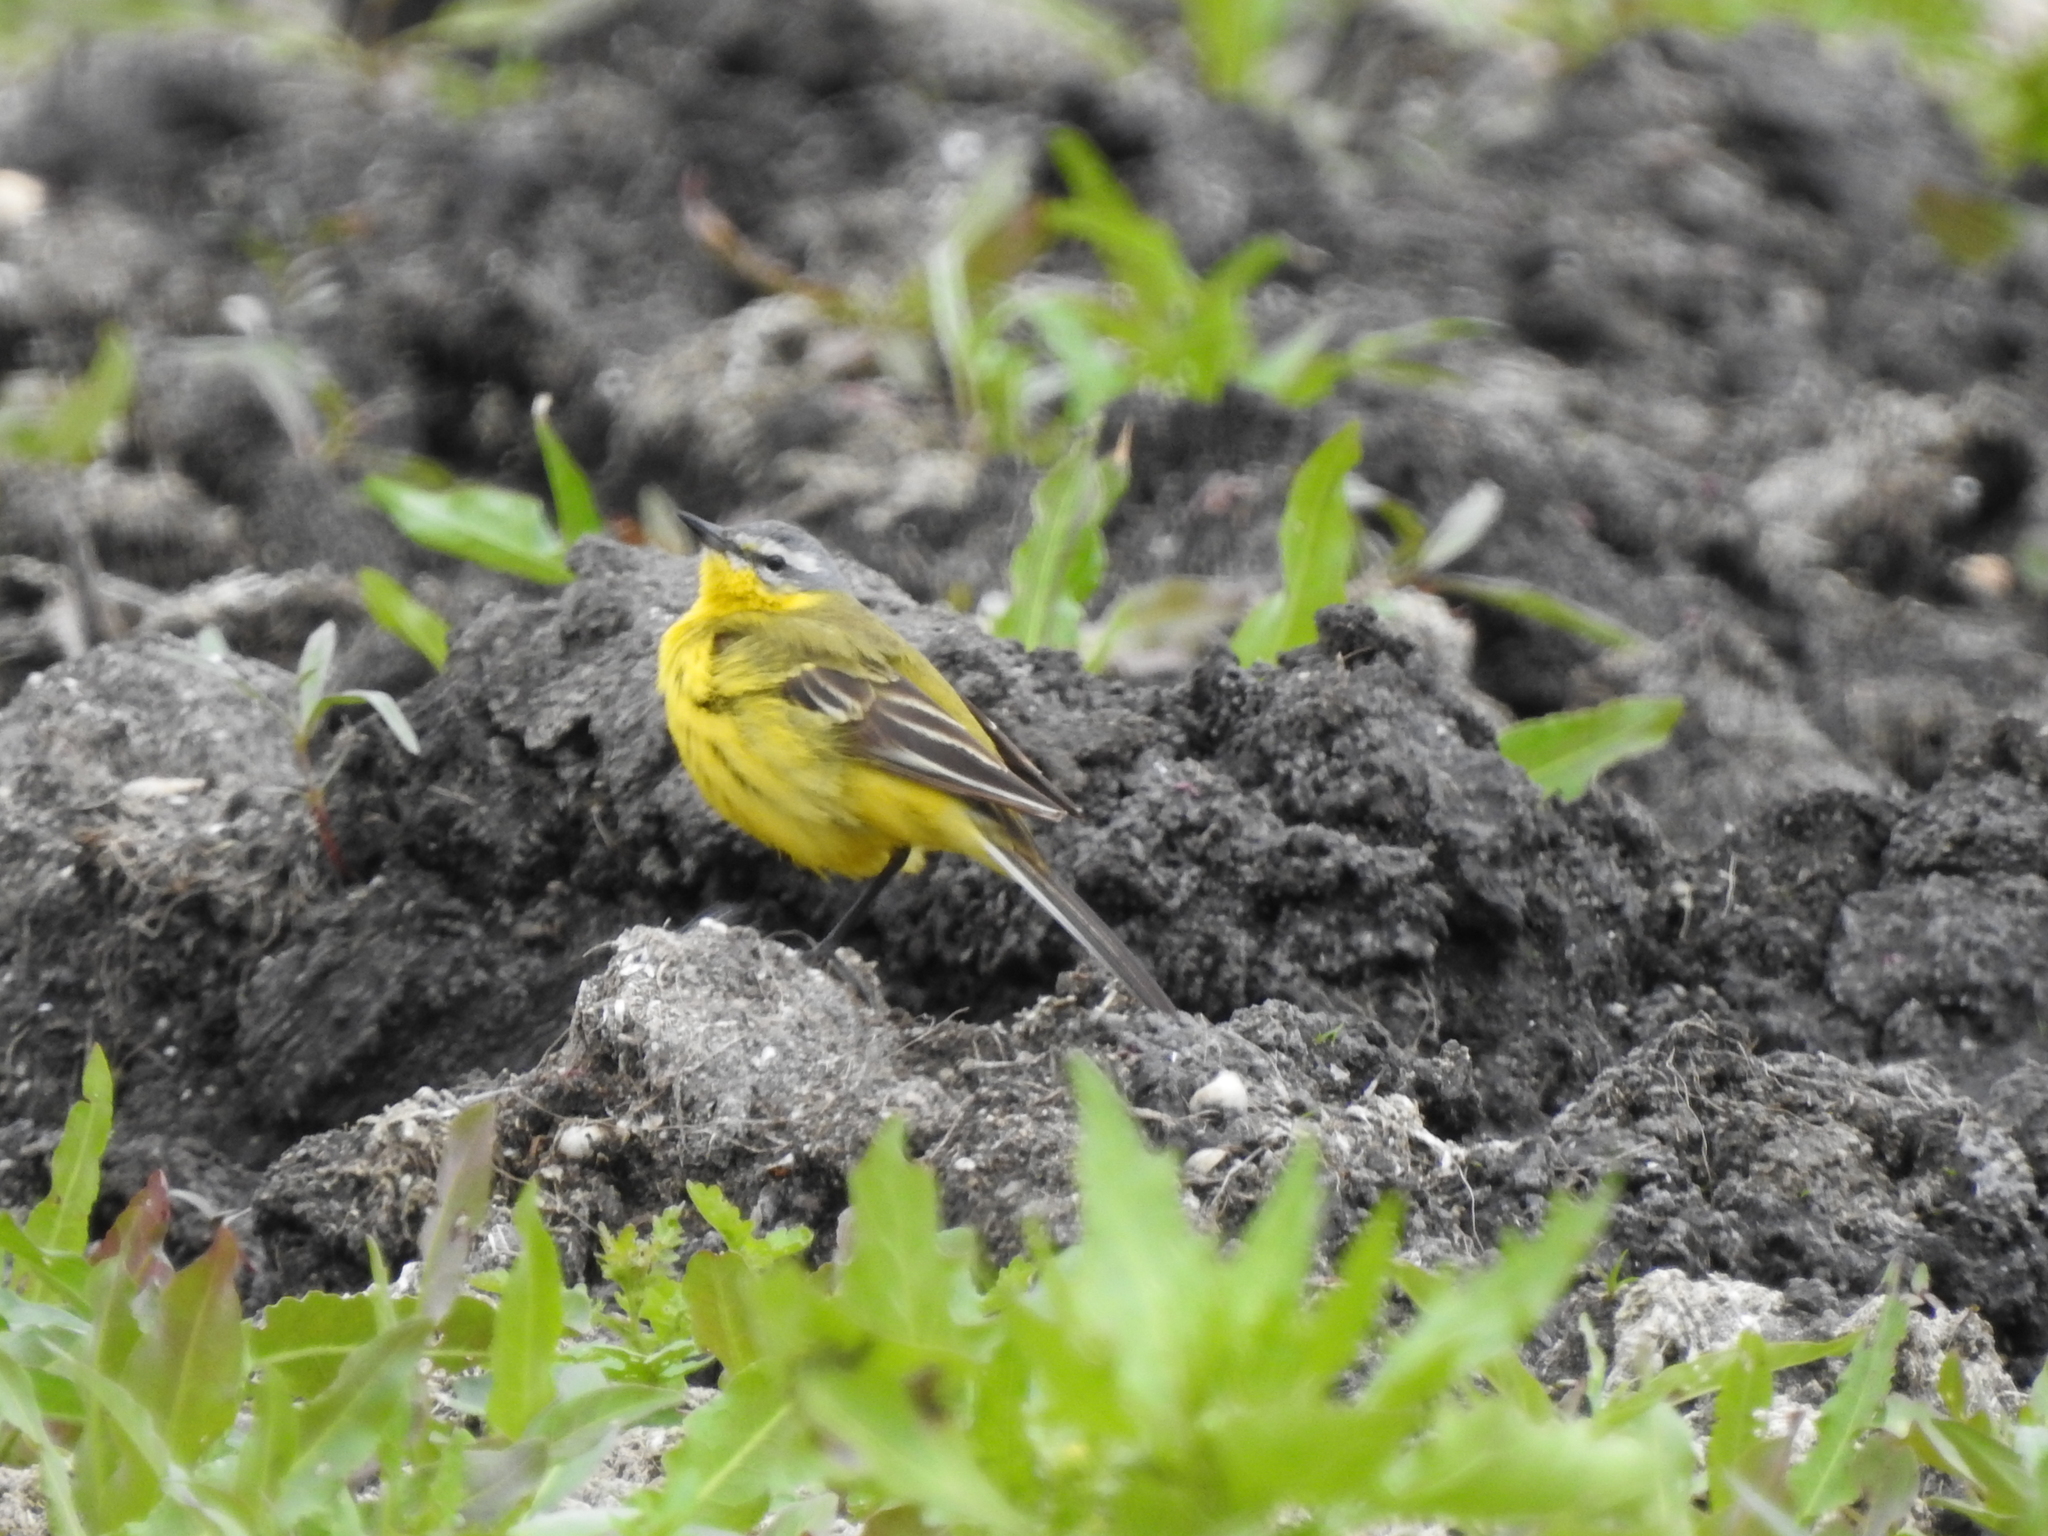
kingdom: Animalia
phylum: Chordata
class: Aves
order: Passeriformes
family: Motacillidae
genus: Motacilla
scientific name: Motacilla flava
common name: Western yellow wagtail
